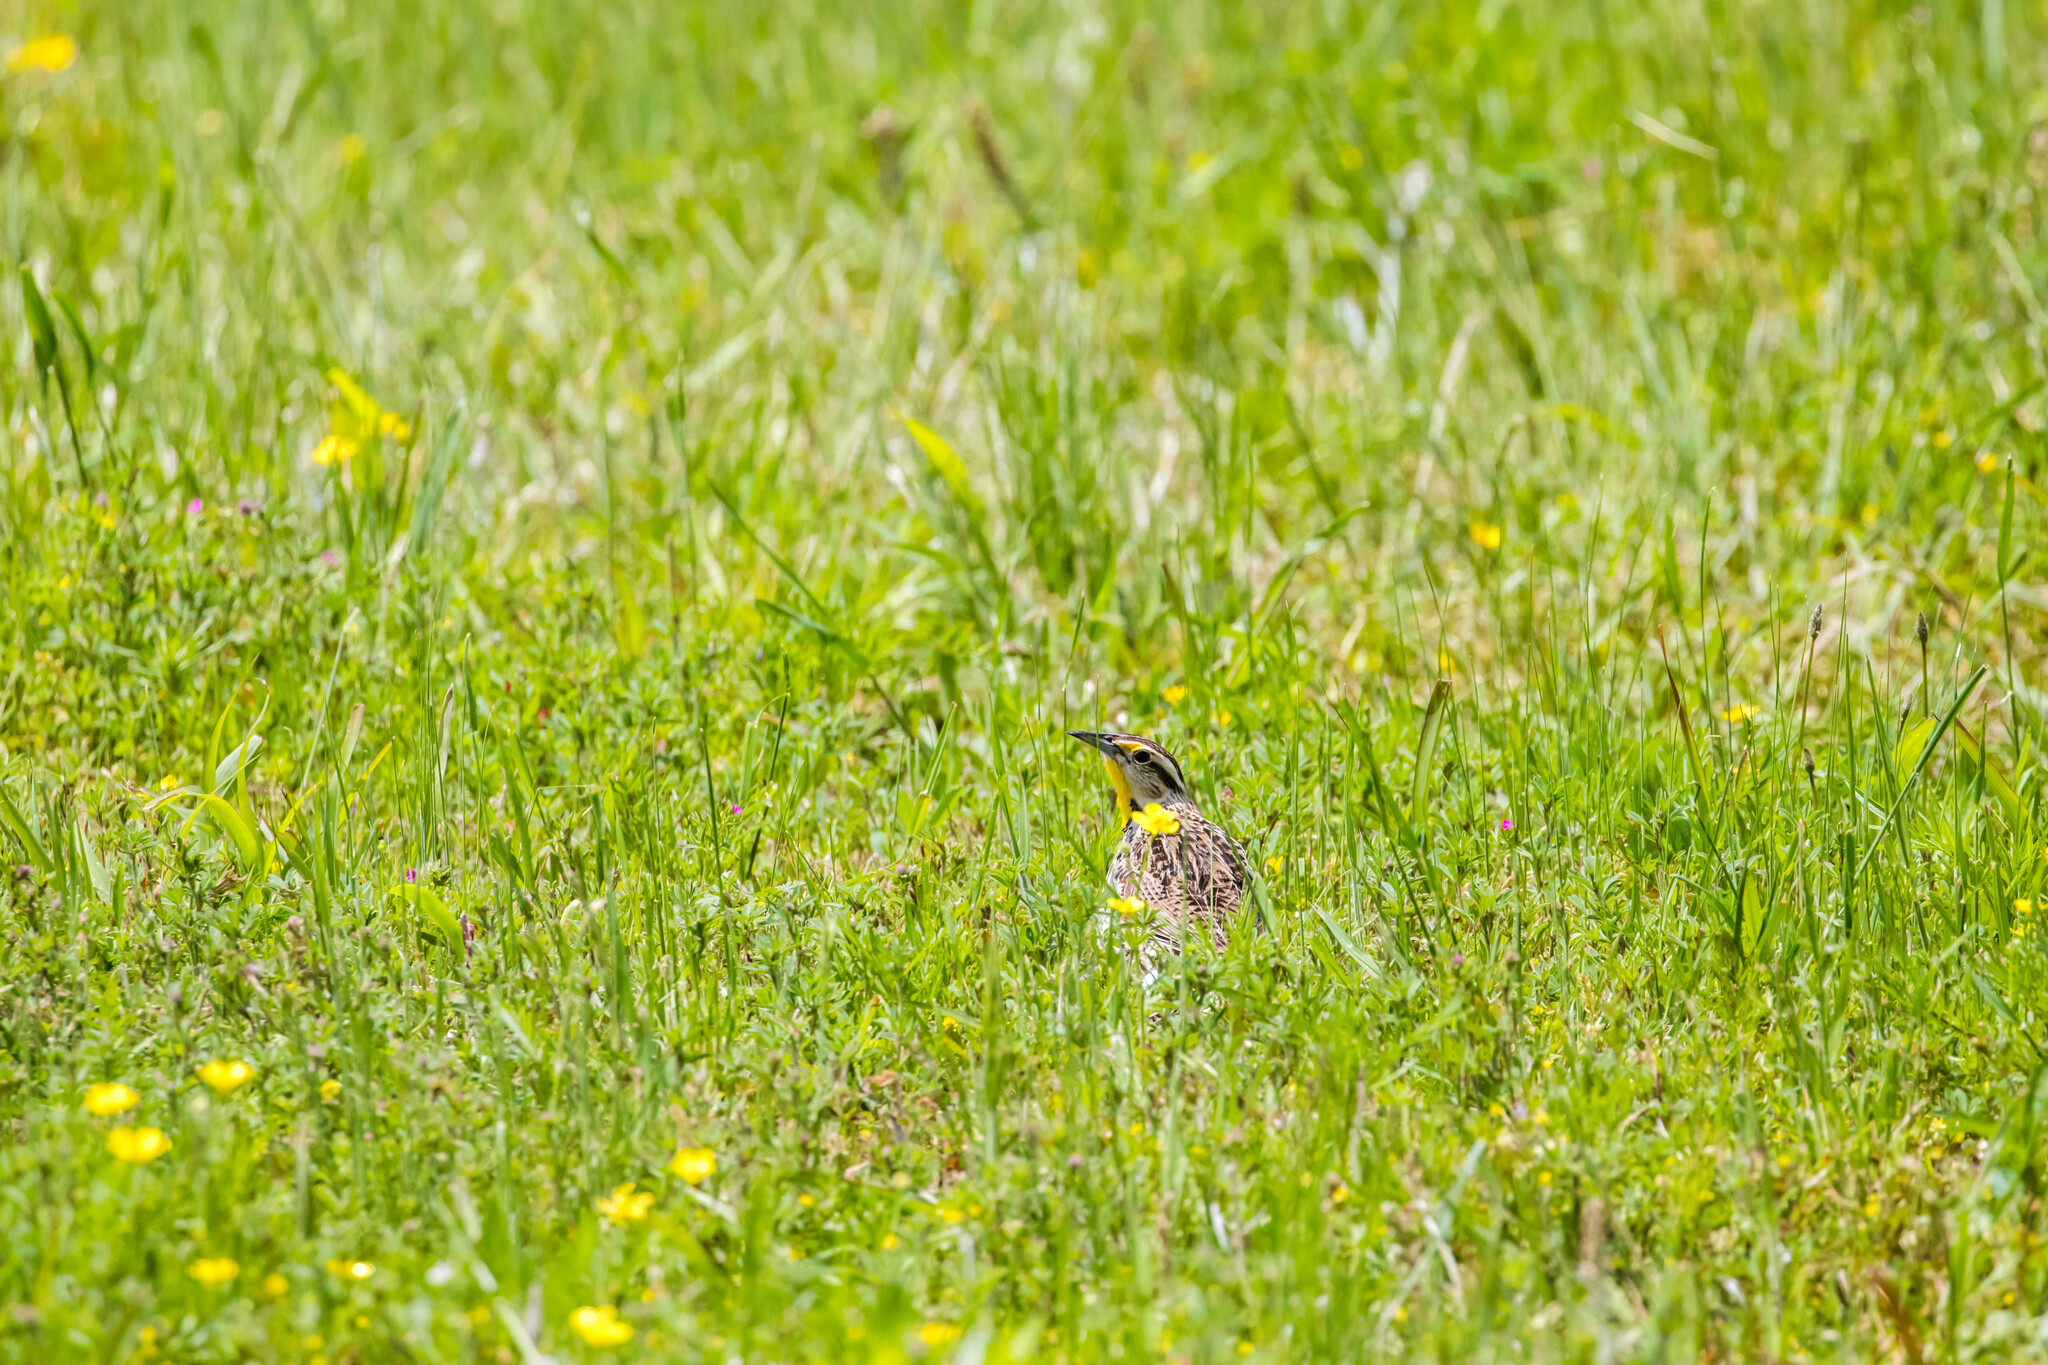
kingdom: Animalia
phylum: Chordata
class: Aves
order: Passeriformes
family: Icteridae
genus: Sturnella
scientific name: Sturnella magna
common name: Eastern meadowlark
